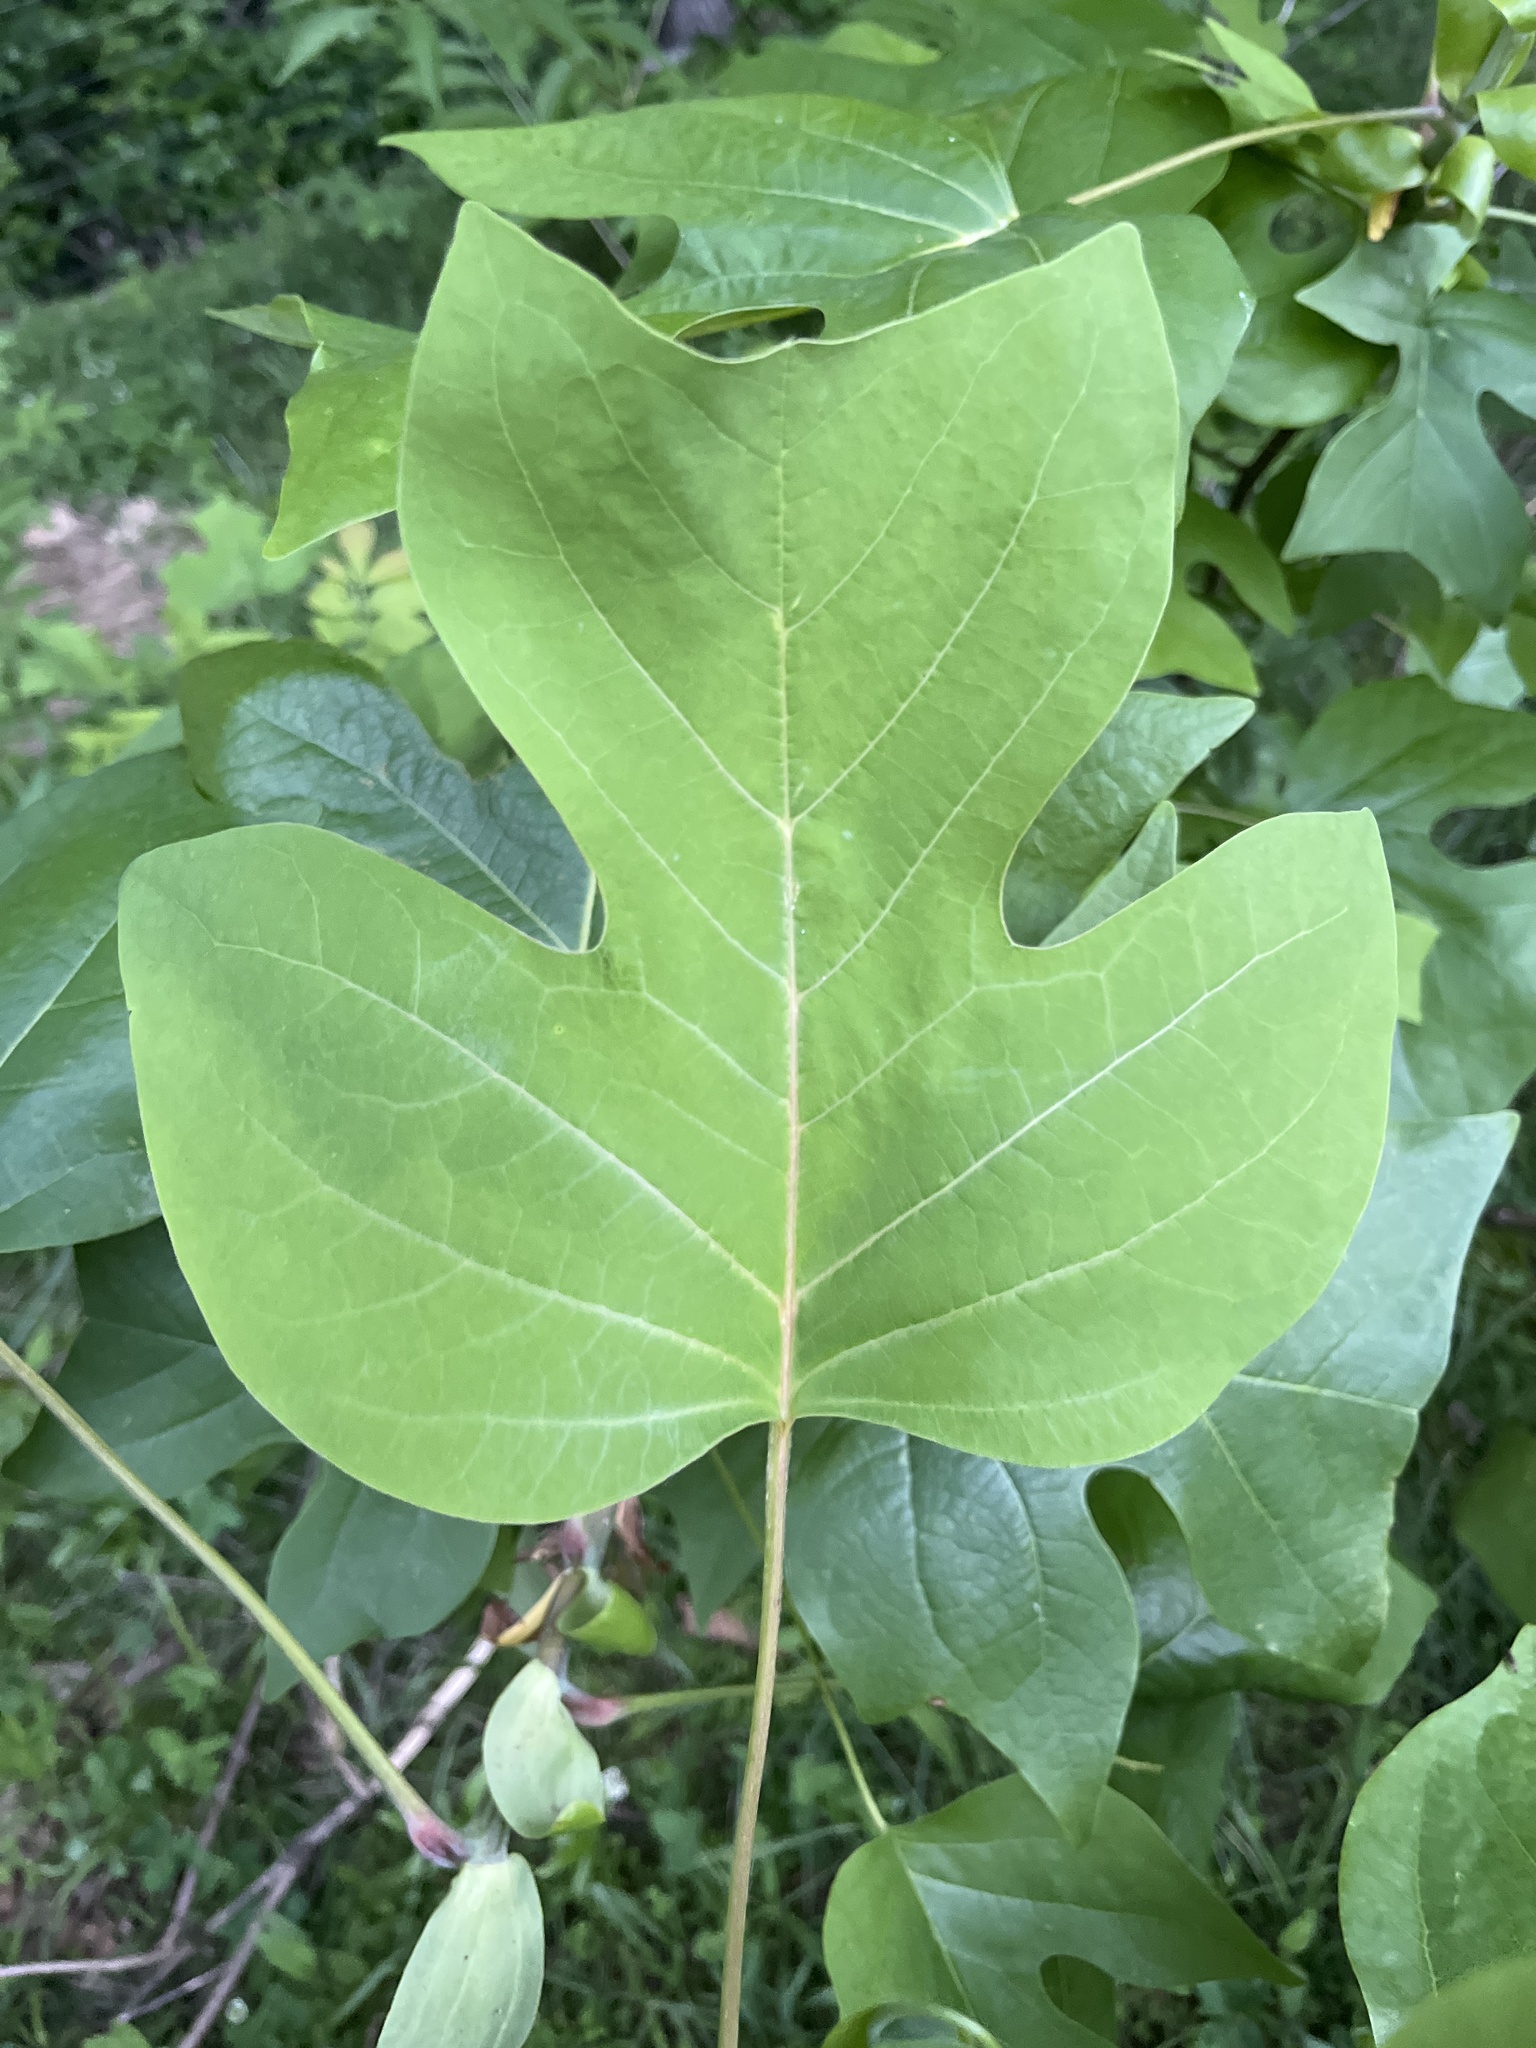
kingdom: Plantae
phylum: Tracheophyta
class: Magnoliopsida
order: Magnoliales
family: Magnoliaceae
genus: Liriodendron
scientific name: Liriodendron tulipifera
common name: Tulip tree
